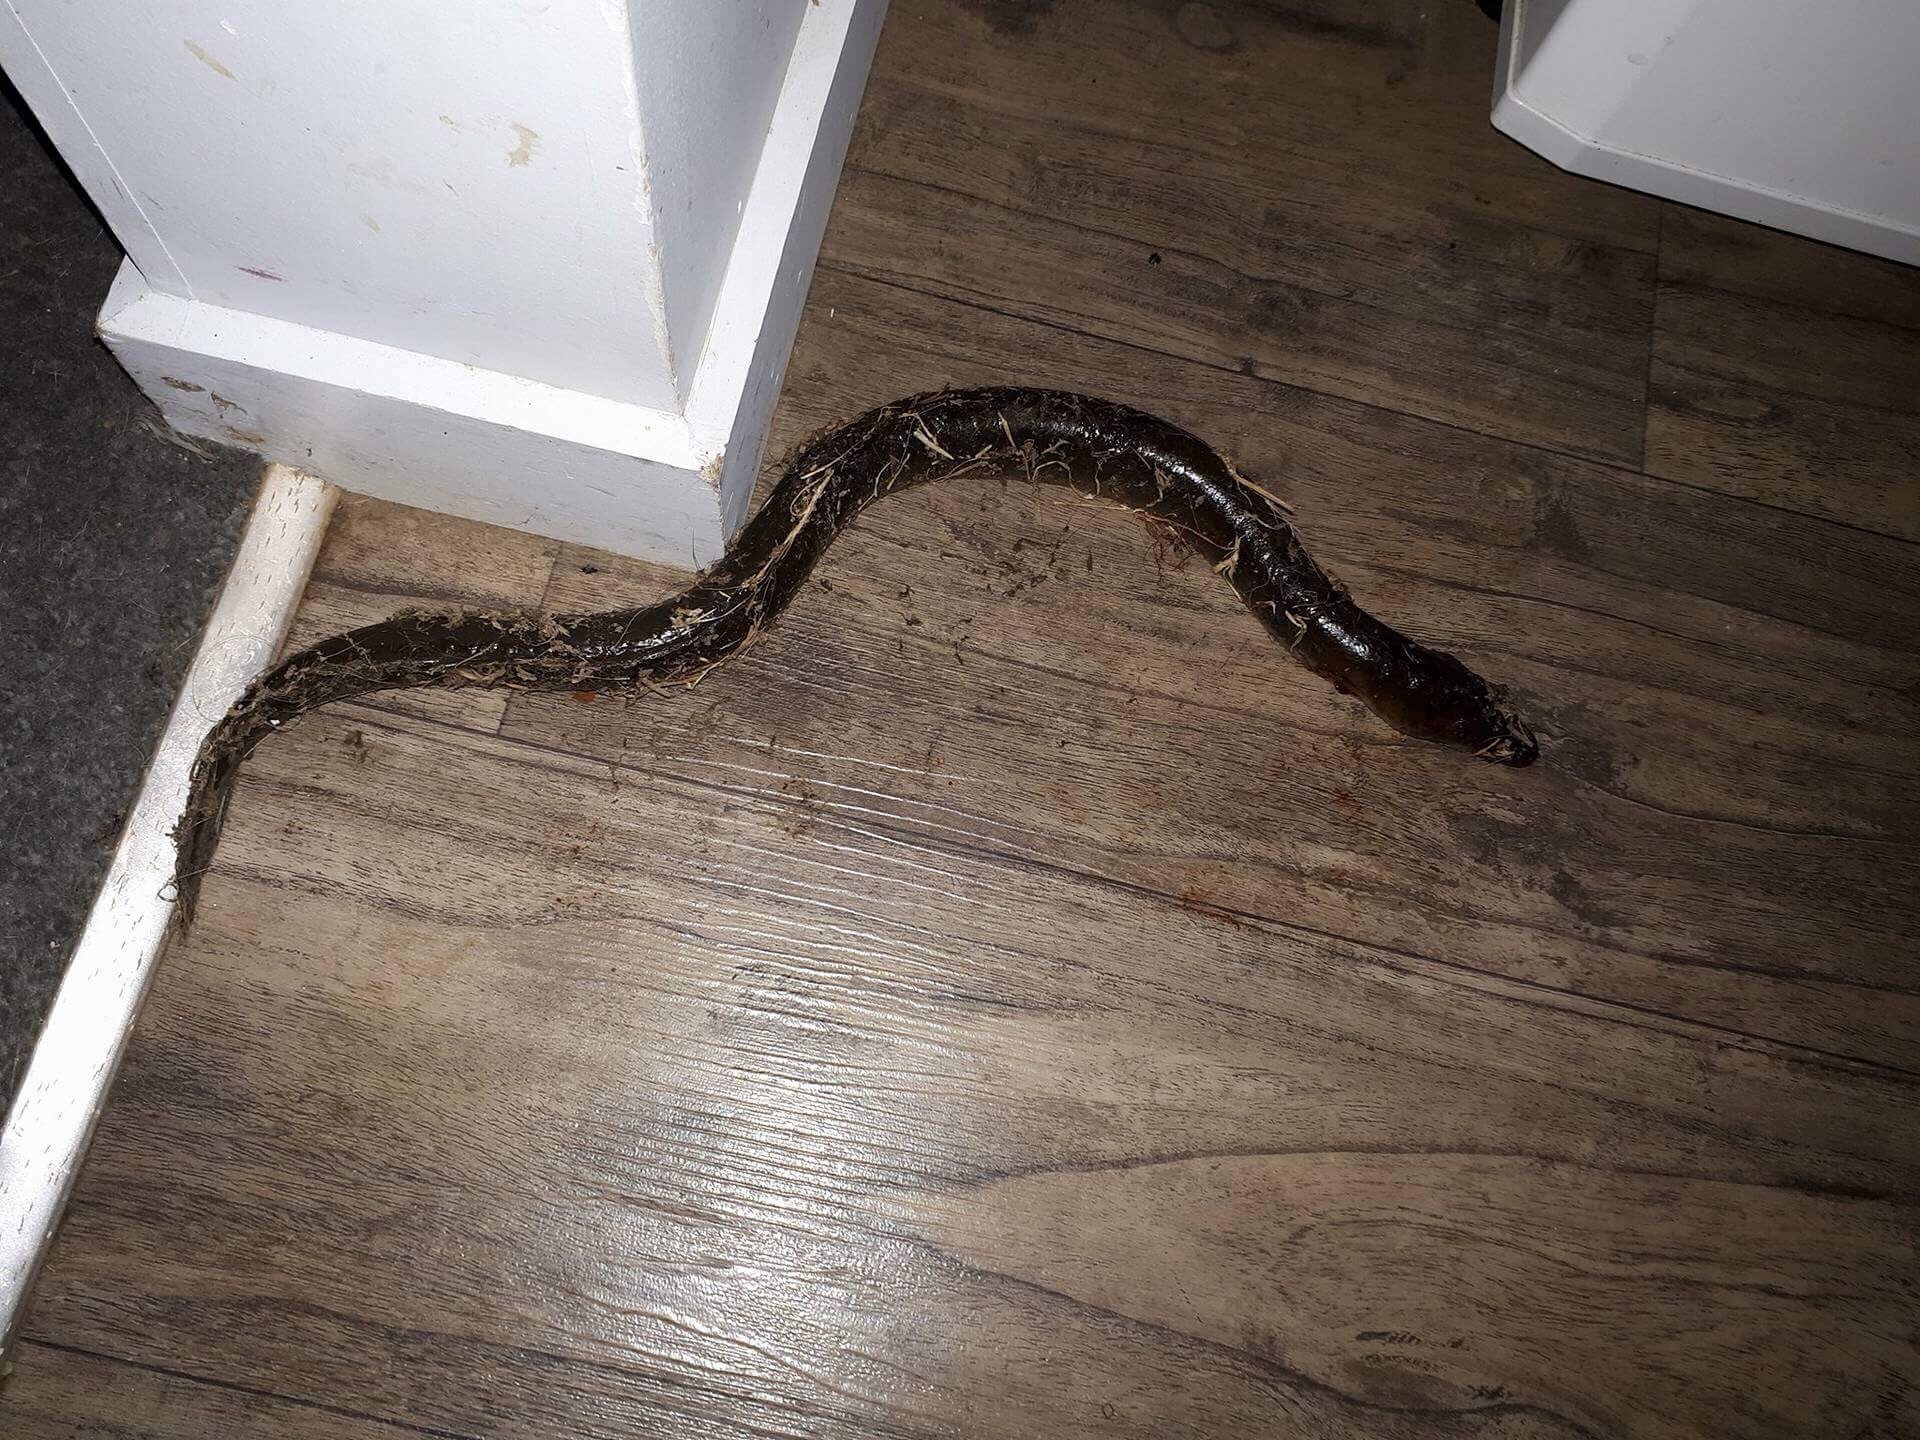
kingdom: Animalia
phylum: Chordata
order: Anguilliformes
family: Anguillidae
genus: Anguilla
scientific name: Anguilla australis
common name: Shortfin eel
